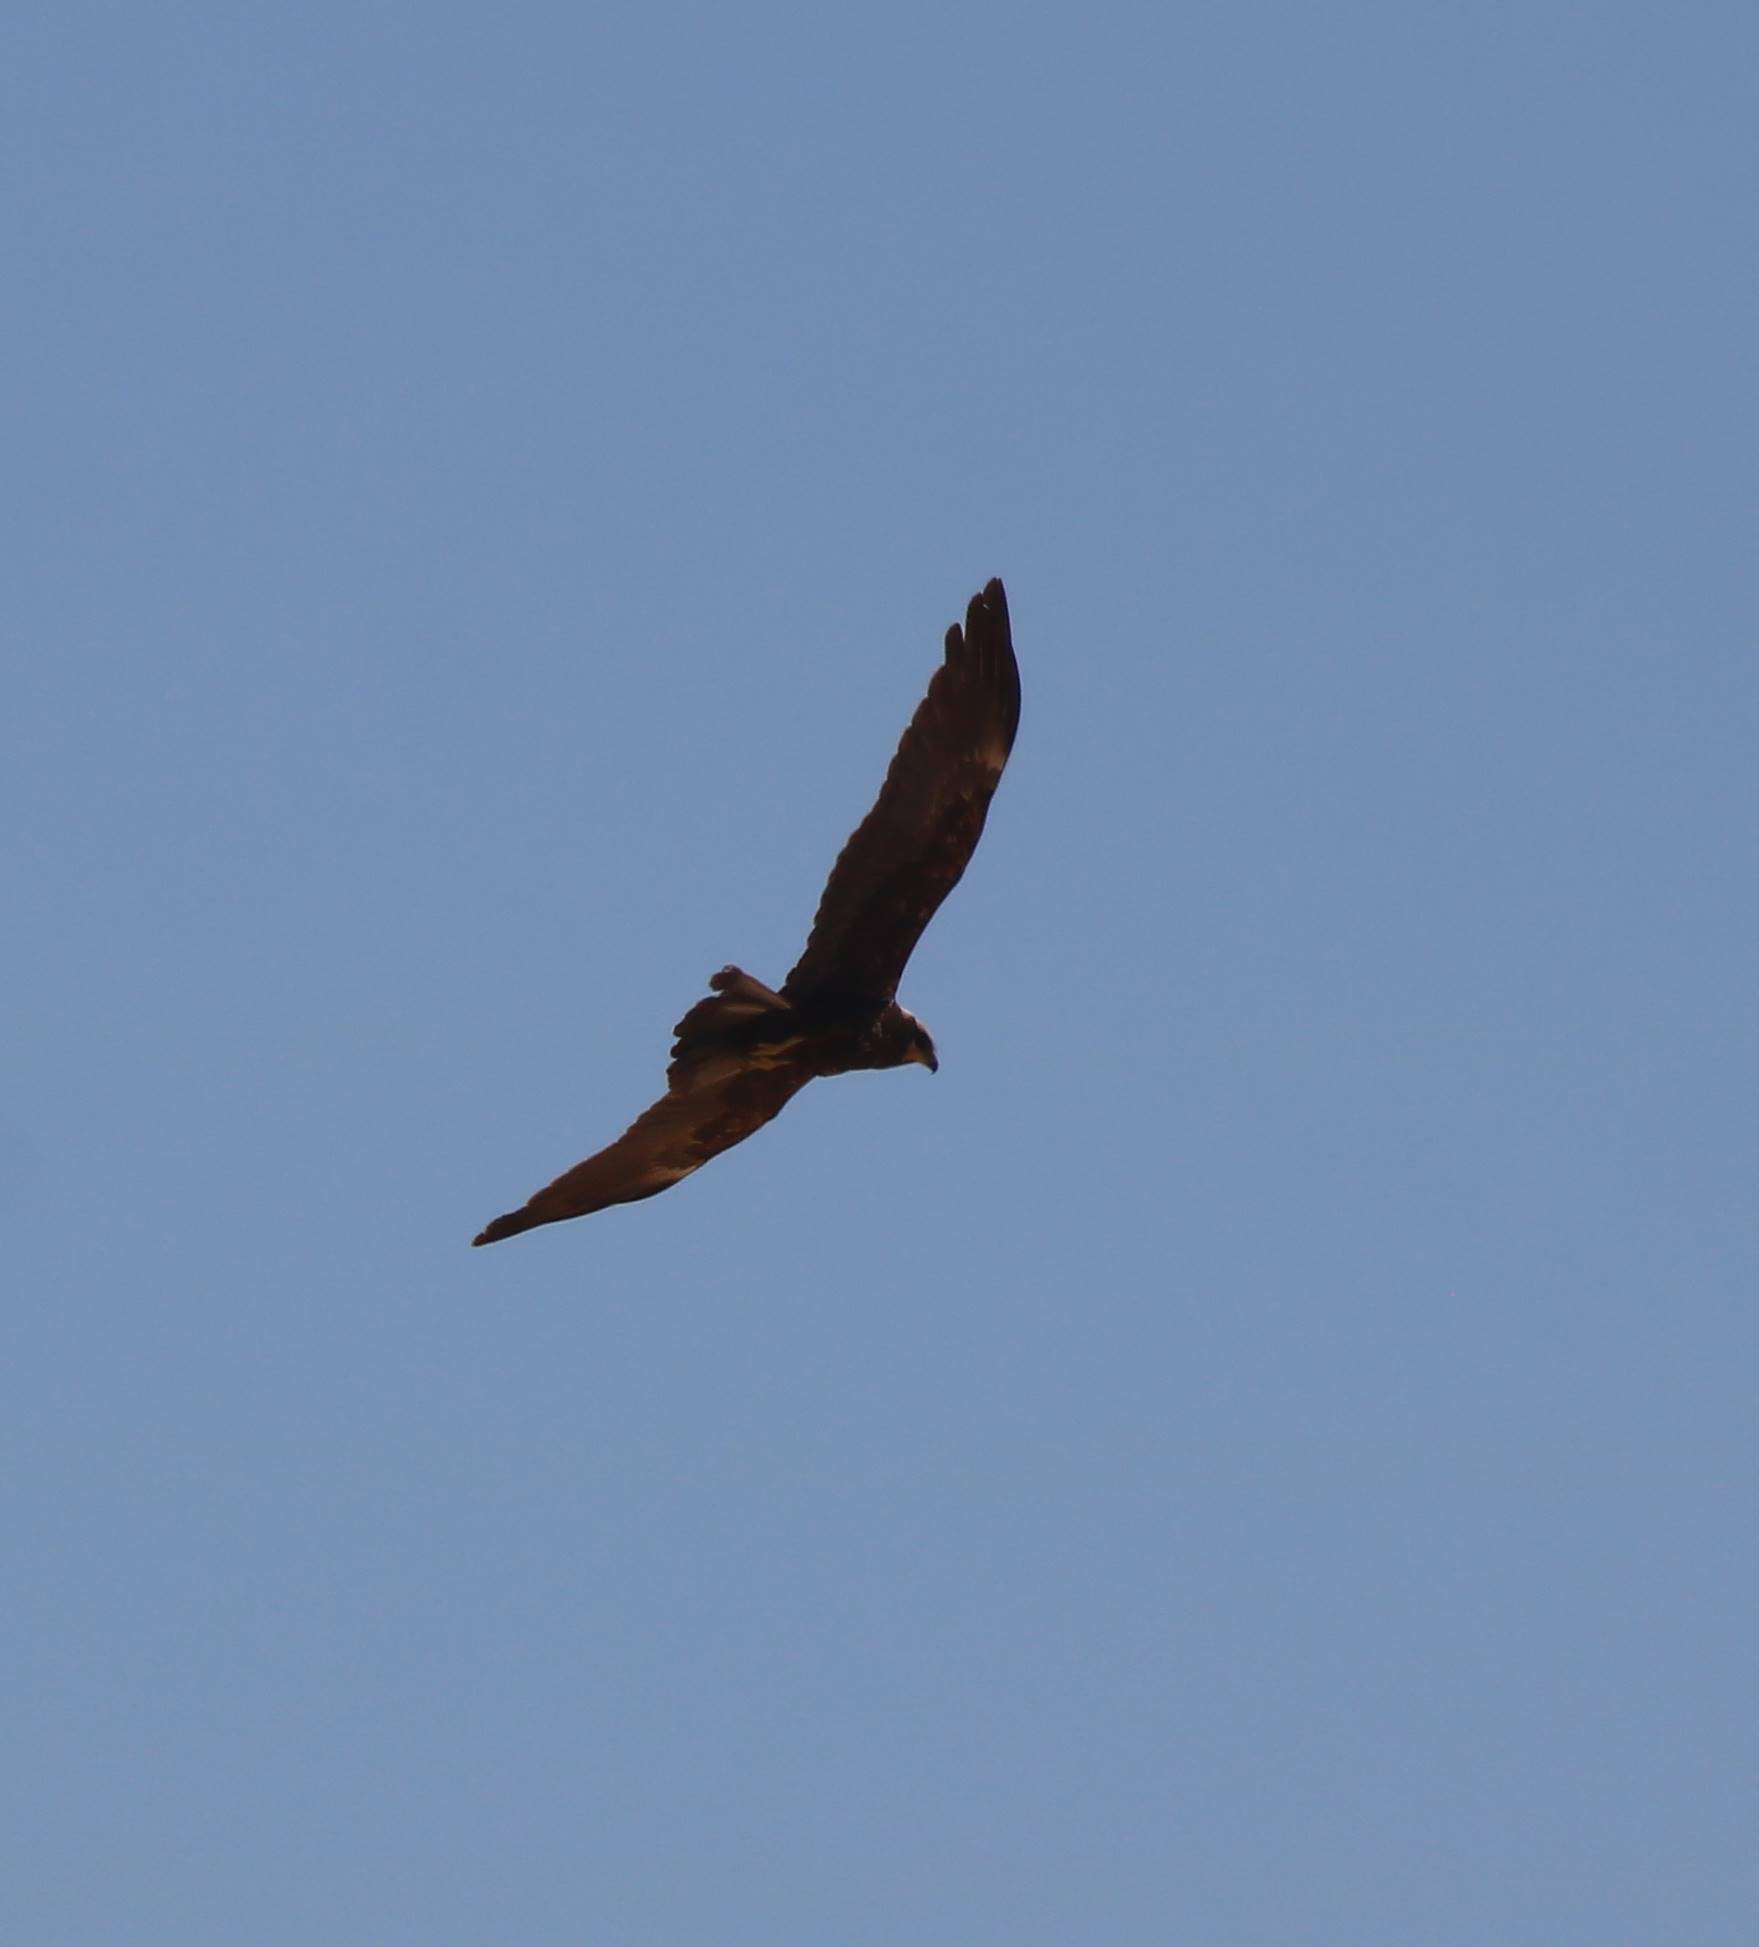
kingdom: Animalia
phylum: Chordata
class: Aves
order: Accipitriformes
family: Accipitridae
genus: Circus
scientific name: Circus aeruginosus
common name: Western marsh harrier
